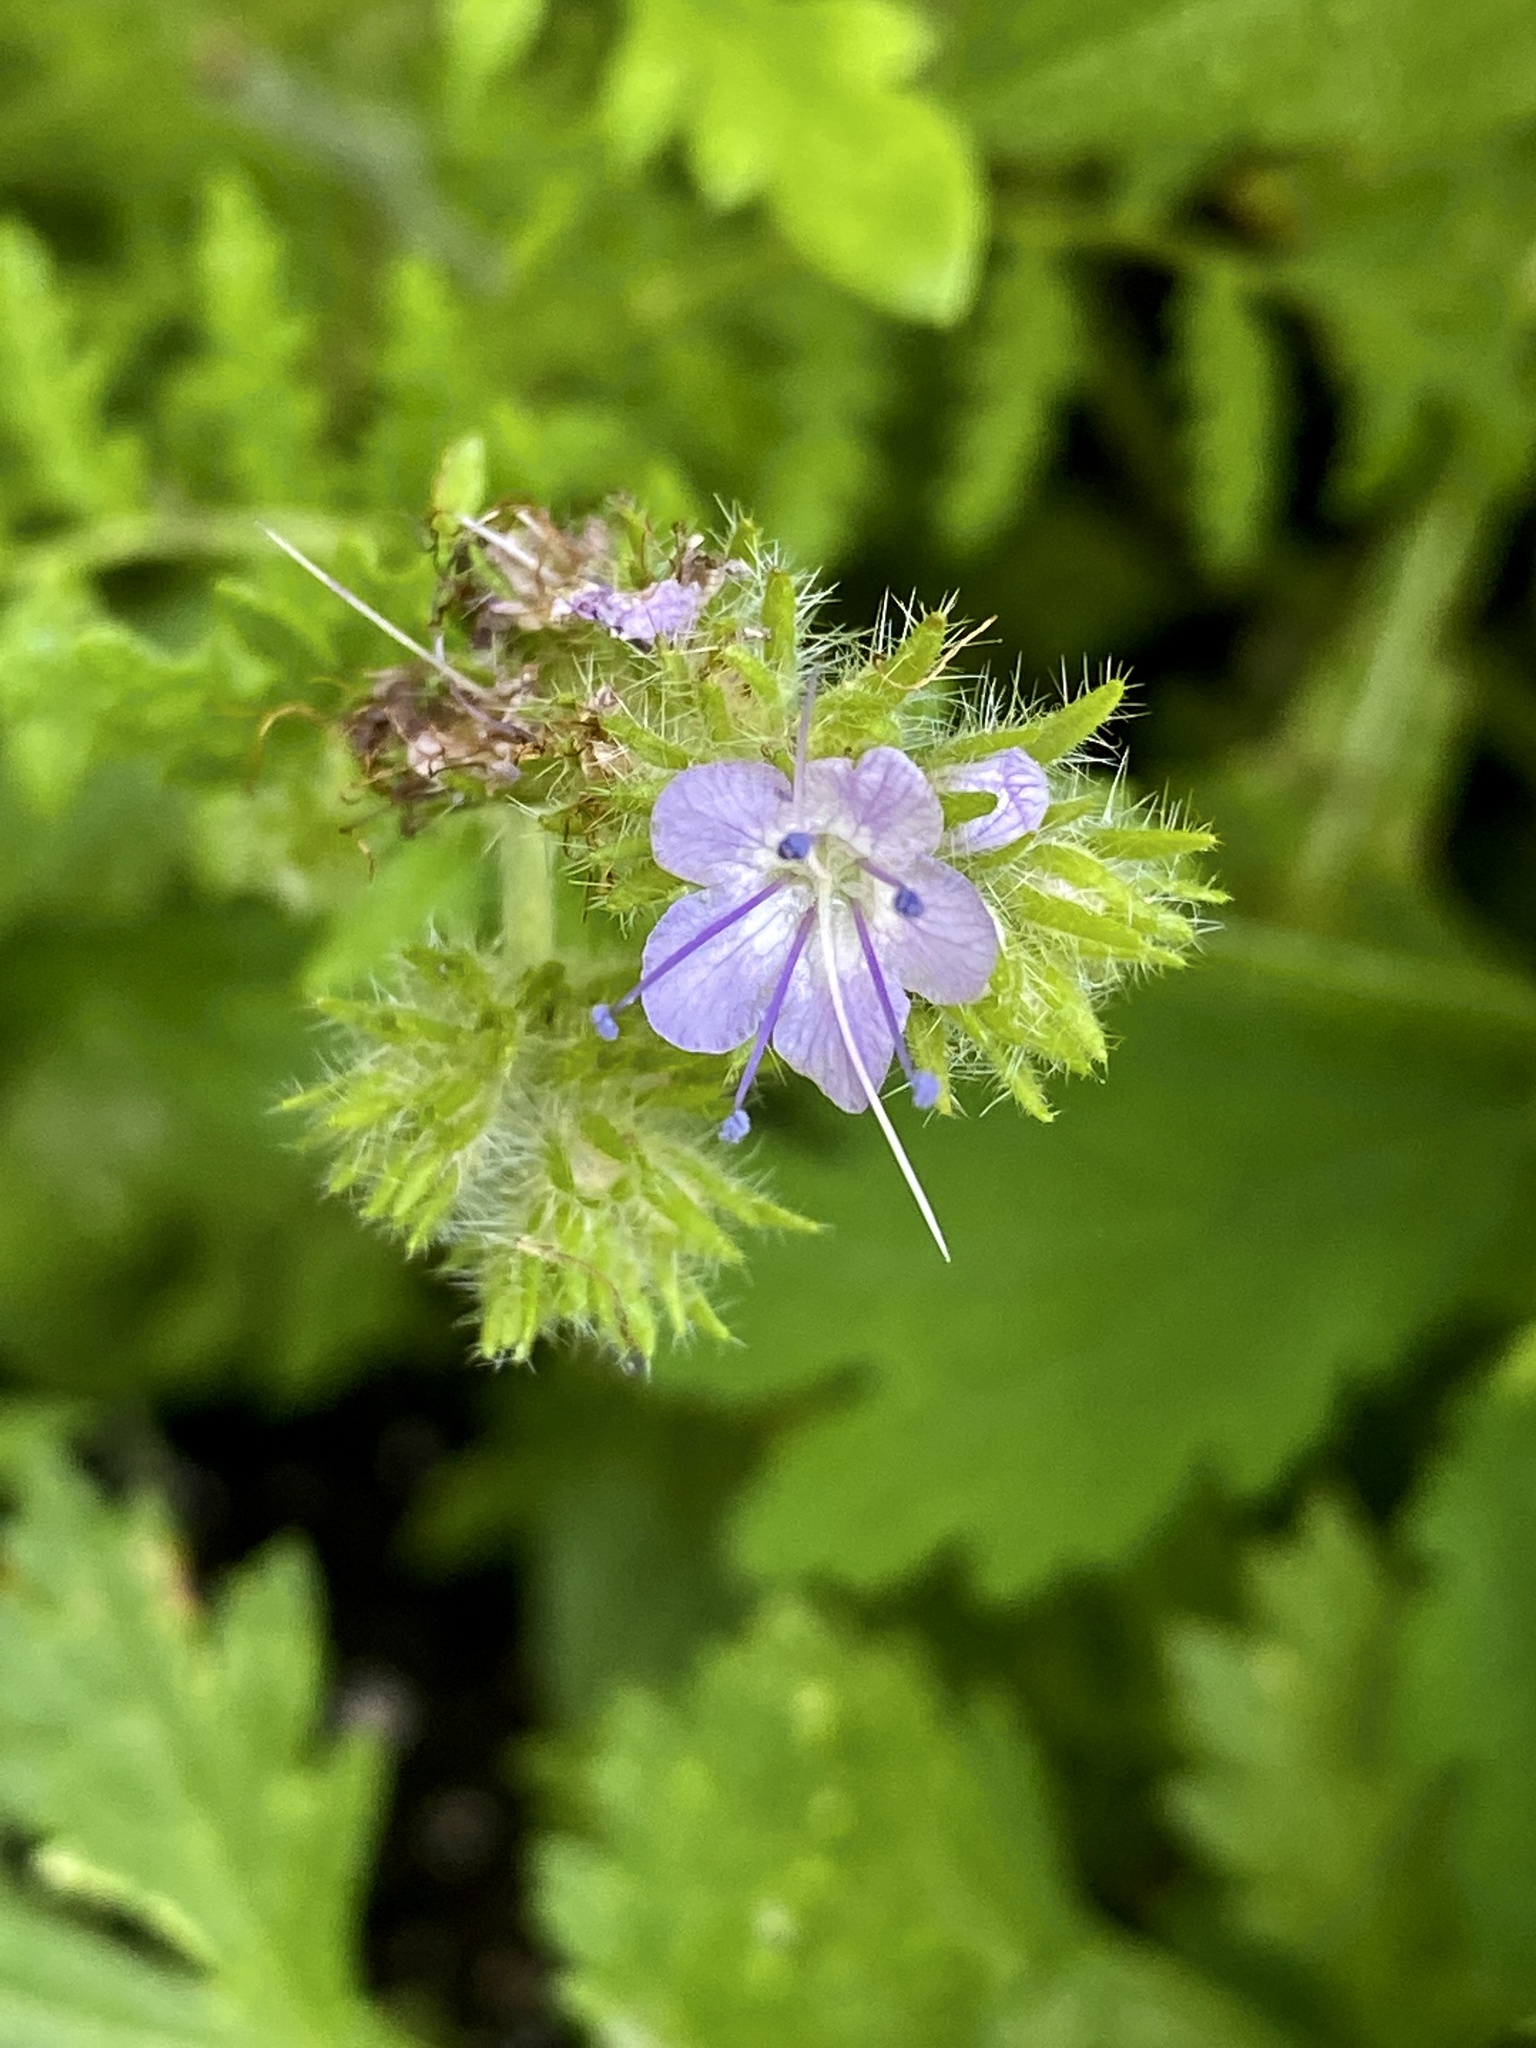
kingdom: Plantae
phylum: Tracheophyta
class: Magnoliopsida
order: Boraginales
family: Hydrophyllaceae
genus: Phacelia
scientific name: Phacelia tanacetifolia
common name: Phacelia
